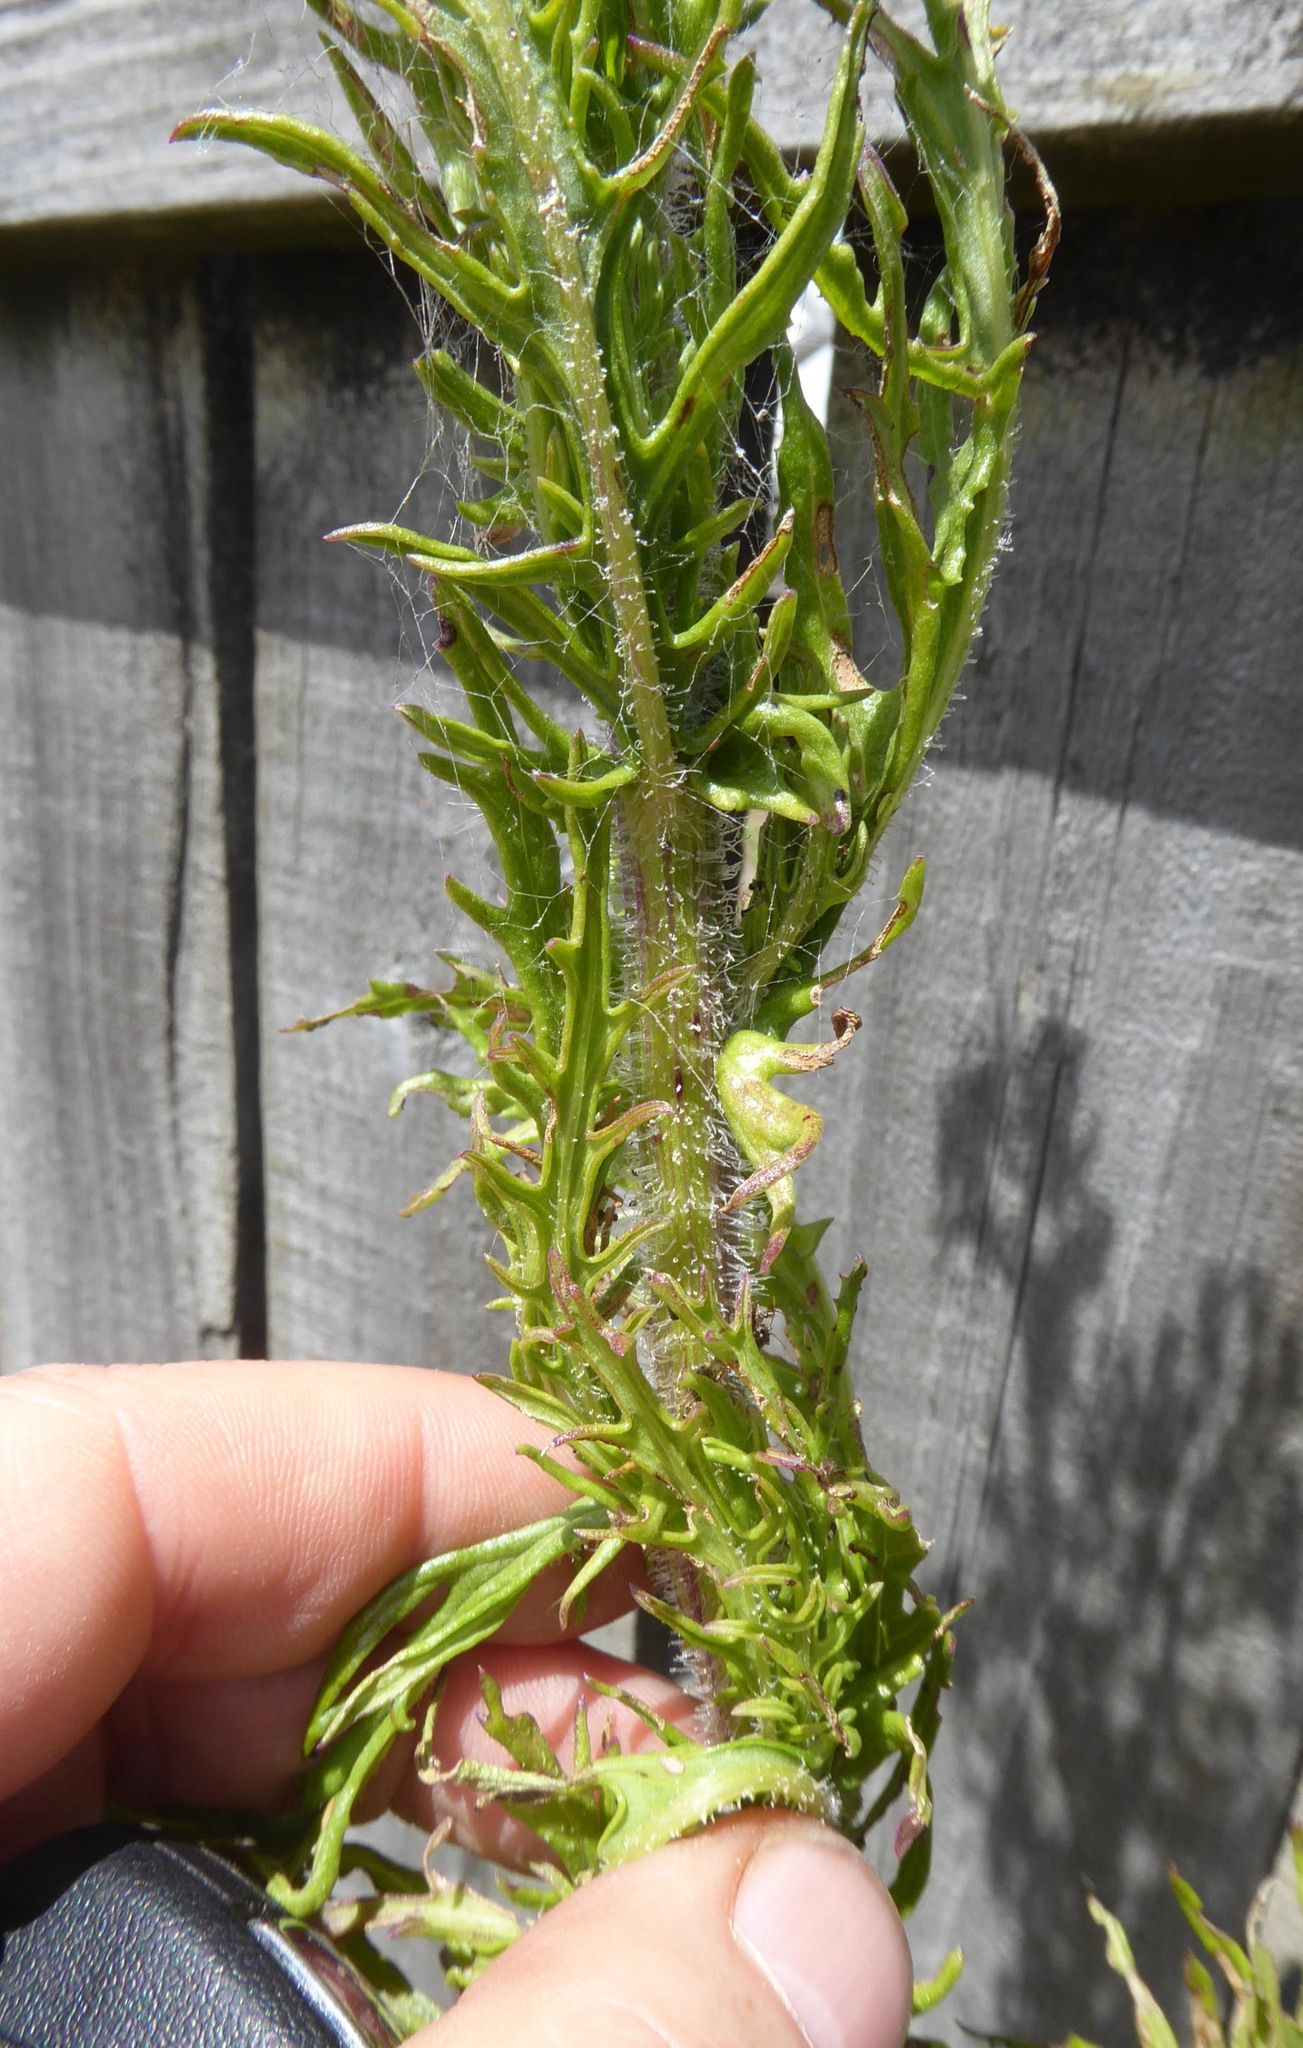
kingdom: Plantae
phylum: Tracheophyta
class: Magnoliopsida
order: Asterales
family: Asteraceae
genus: Senecio
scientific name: Senecio esleri
